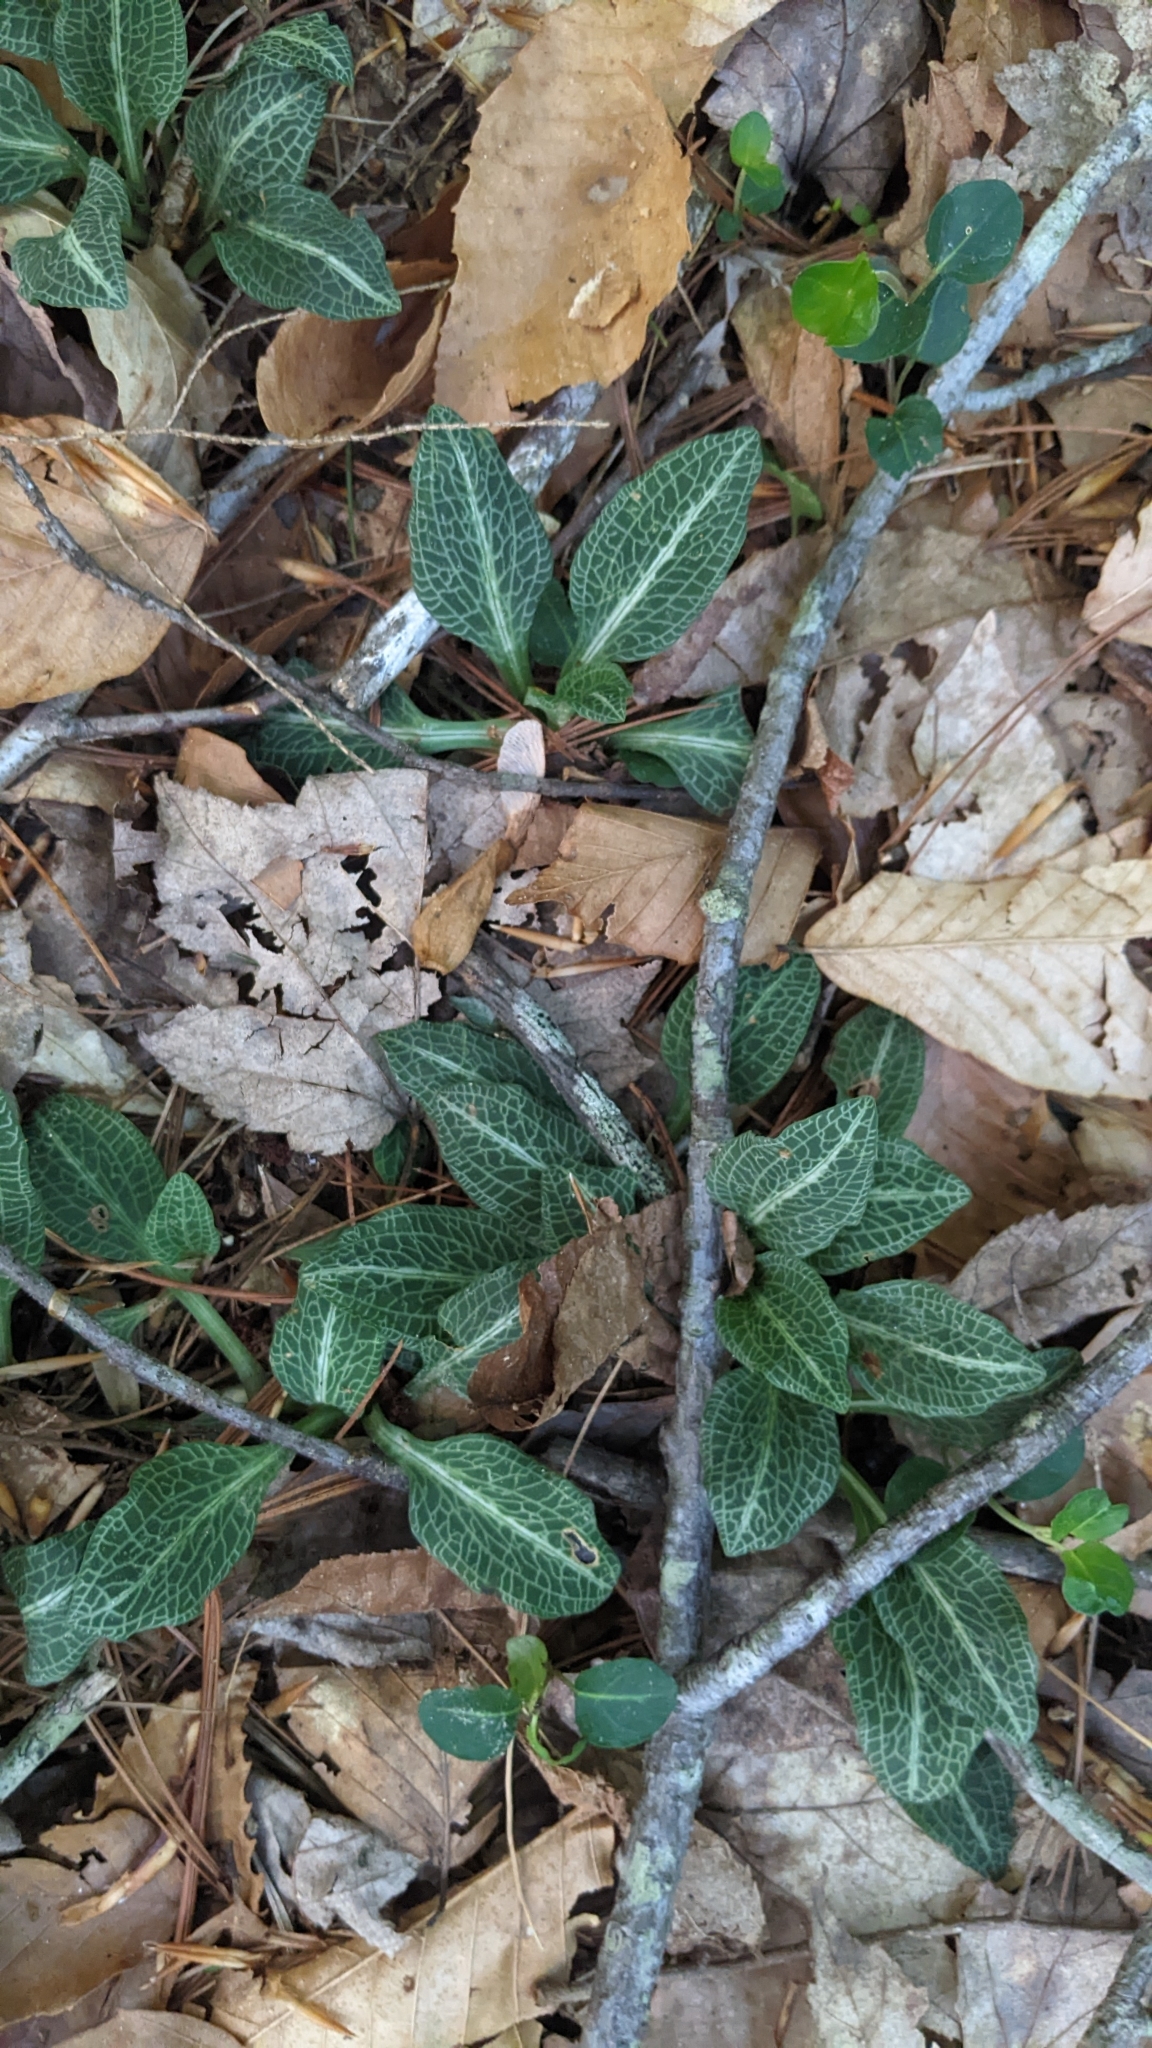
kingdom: Plantae
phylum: Tracheophyta
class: Liliopsida
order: Asparagales
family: Orchidaceae
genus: Goodyera
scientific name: Goodyera pubescens
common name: Downy rattlesnake-plantain
